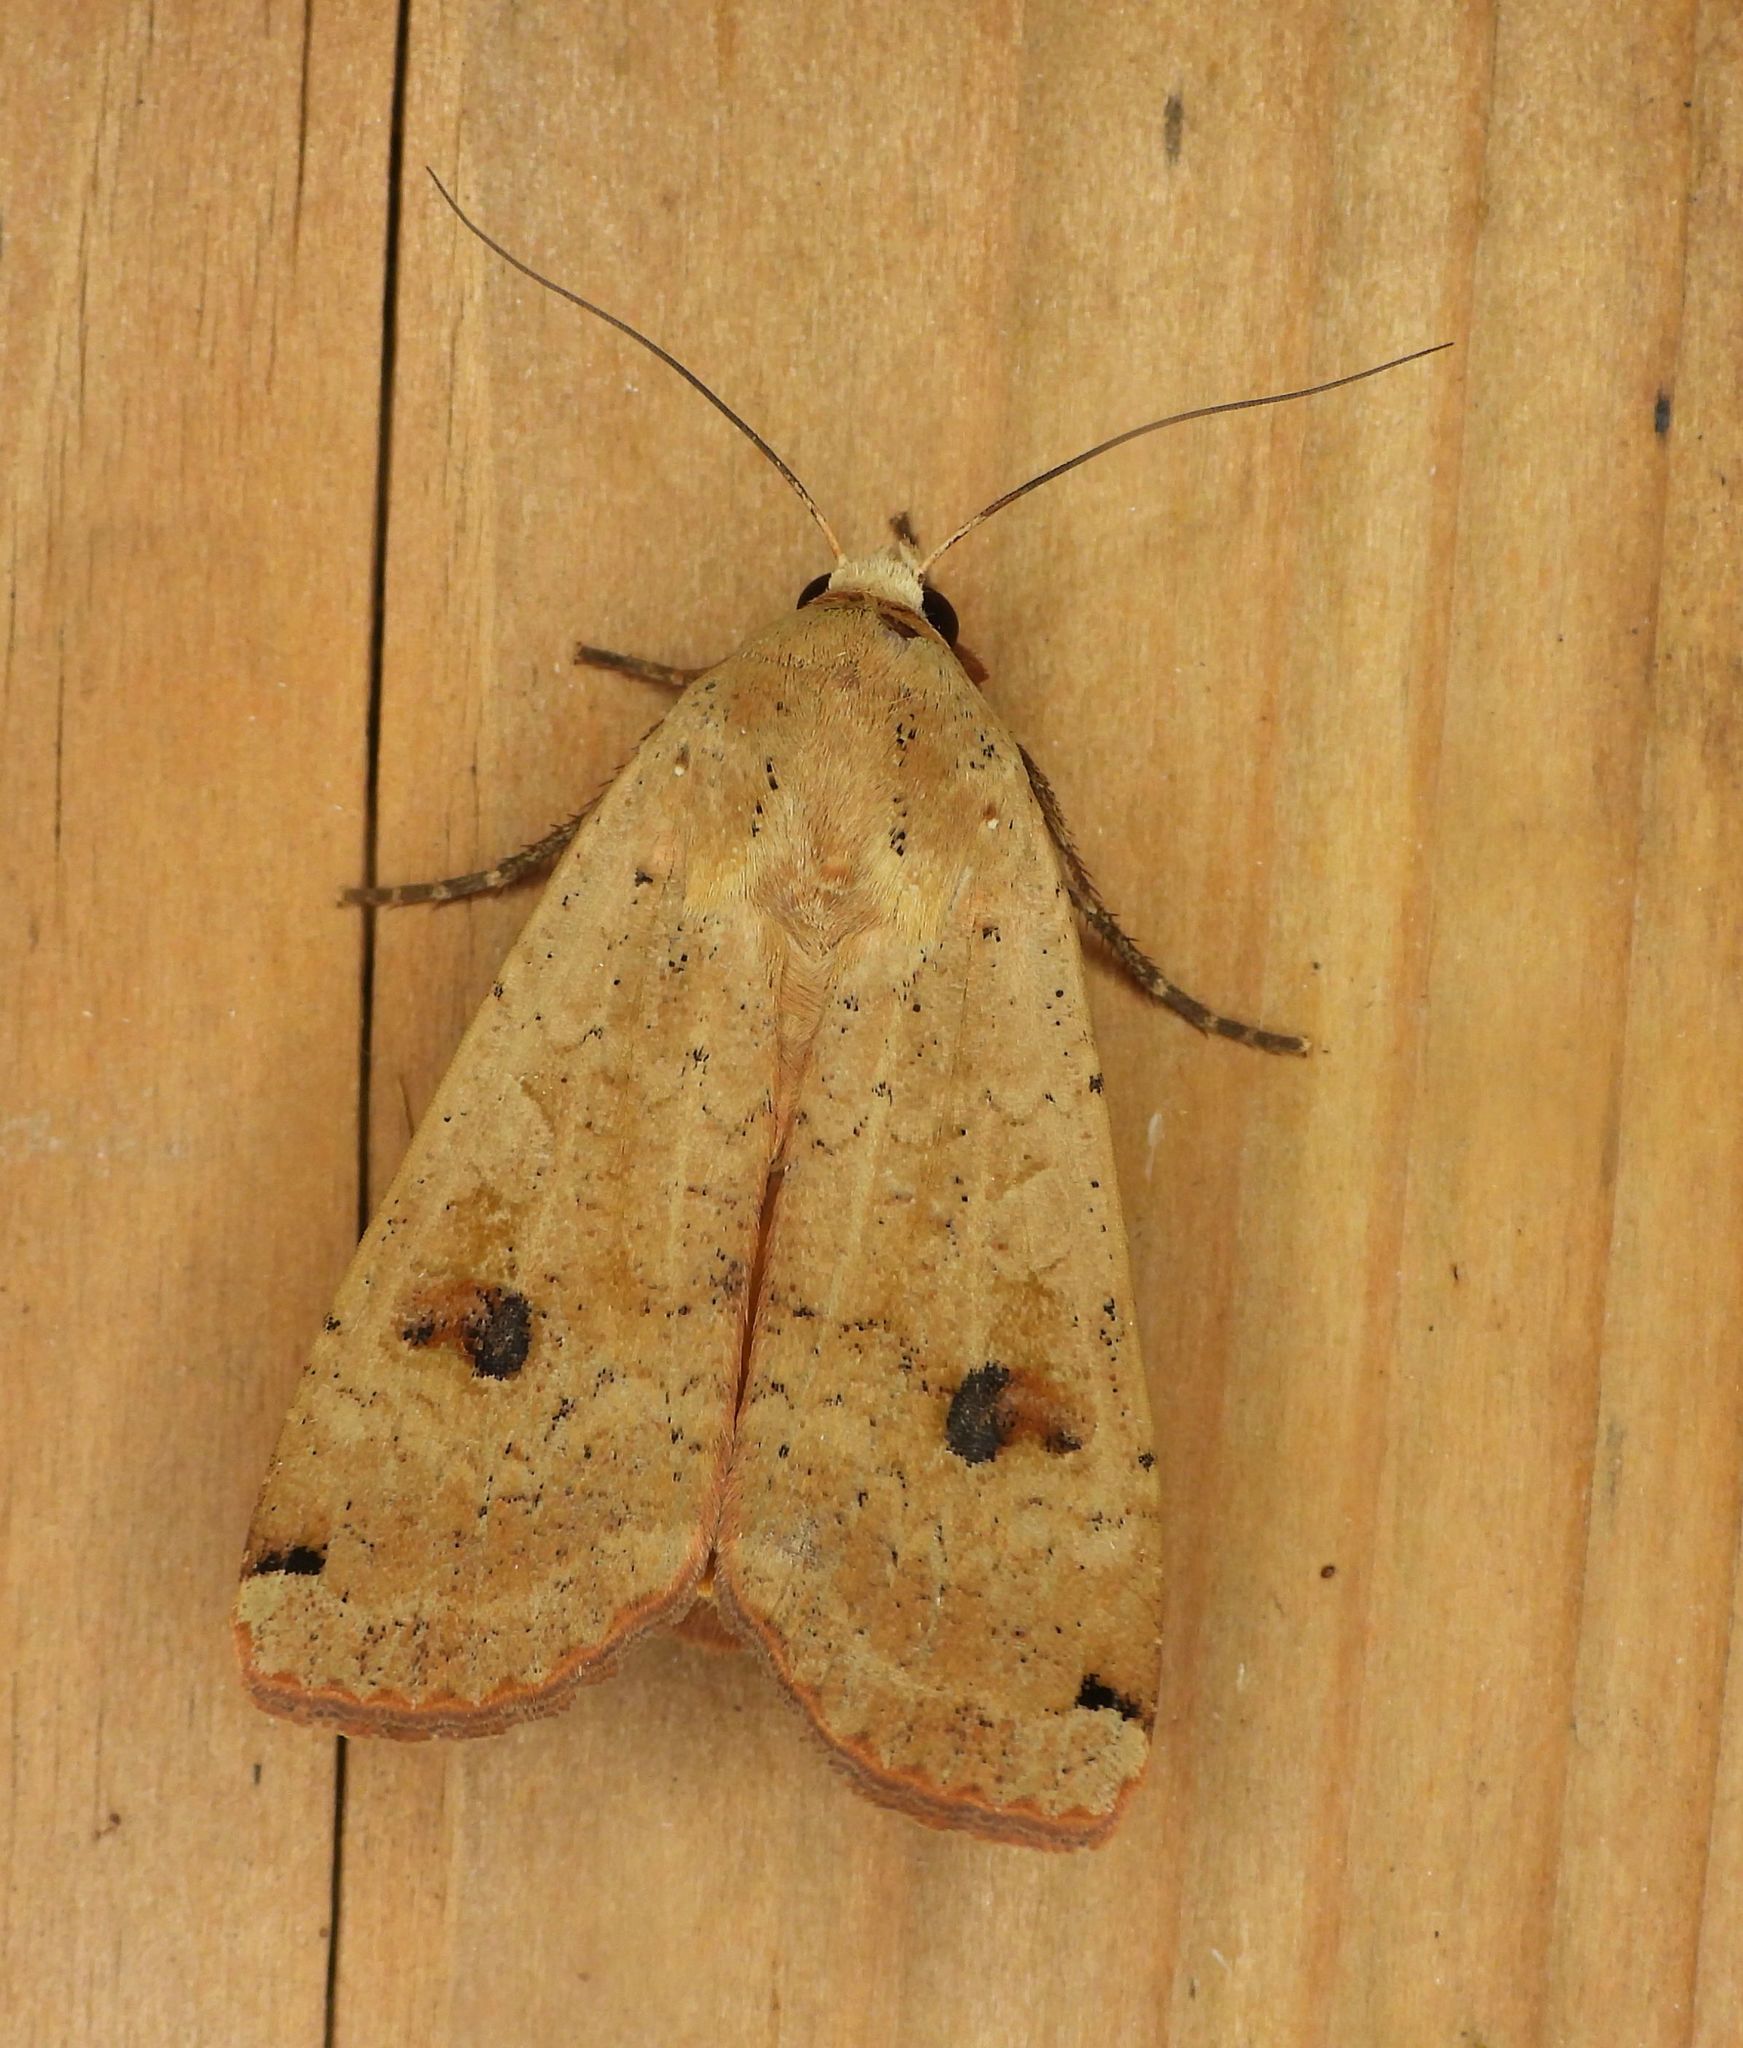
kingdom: Animalia
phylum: Arthropoda
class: Insecta
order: Lepidoptera
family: Noctuidae
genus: Noctua
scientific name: Noctua pronuba
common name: Large yellow underwing
